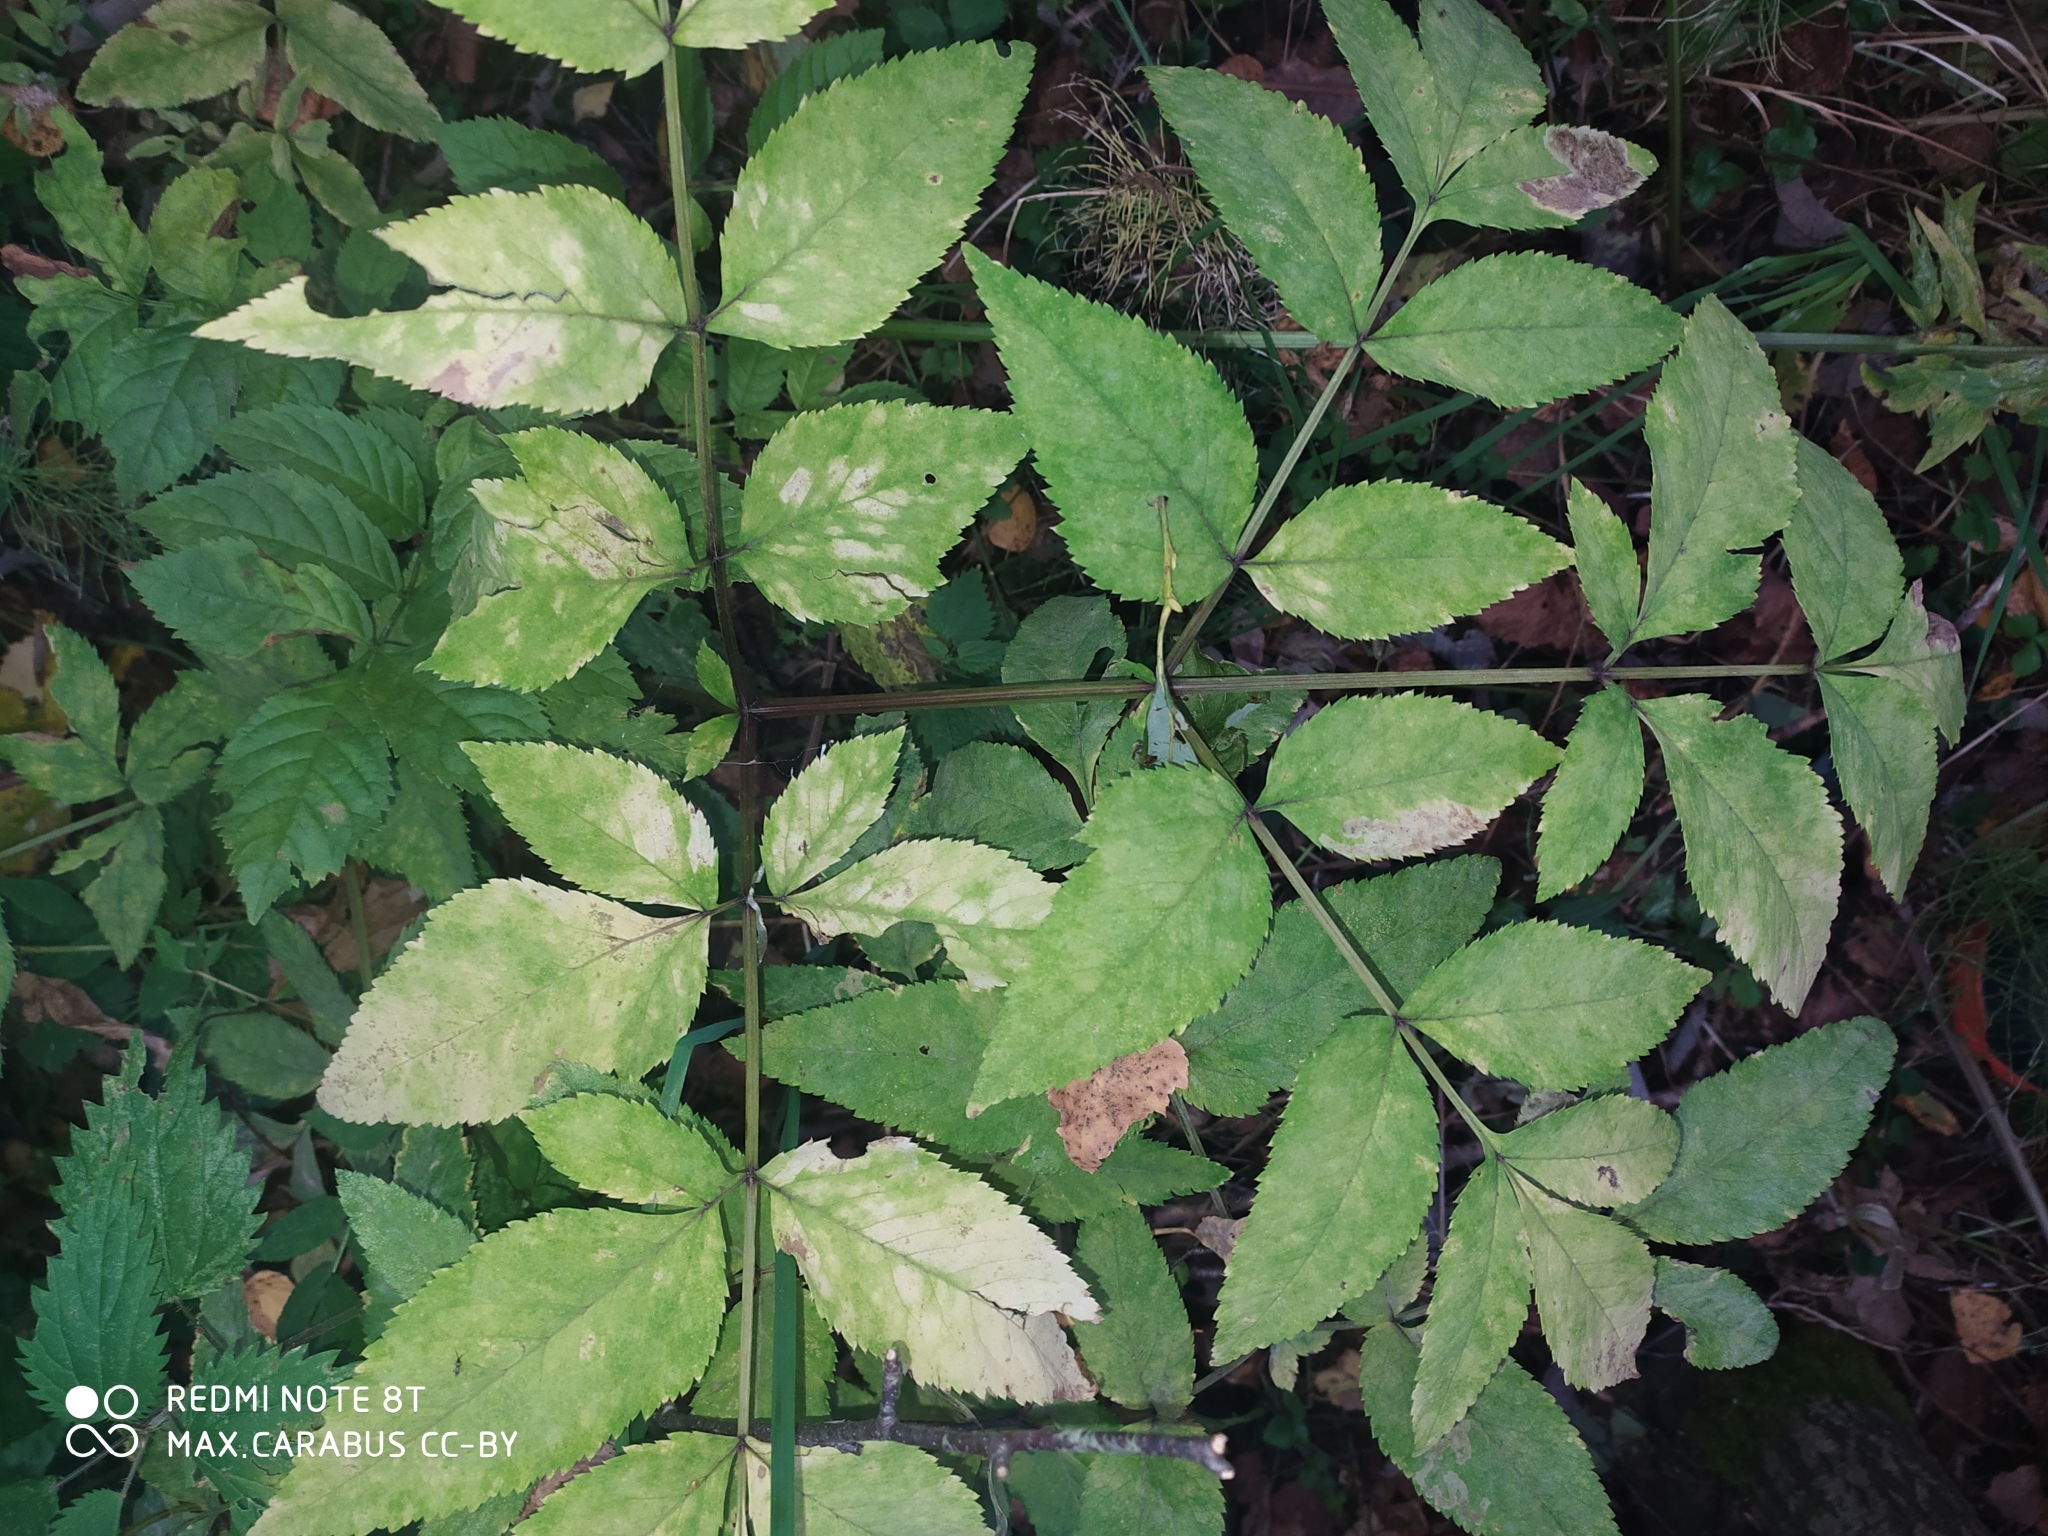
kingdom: Plantae
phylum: Tracheophyta
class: Magnoliopsida
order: Apiales
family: Apiaceae
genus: Angelica
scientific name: Angelica sylvestris
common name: Wild angelica
